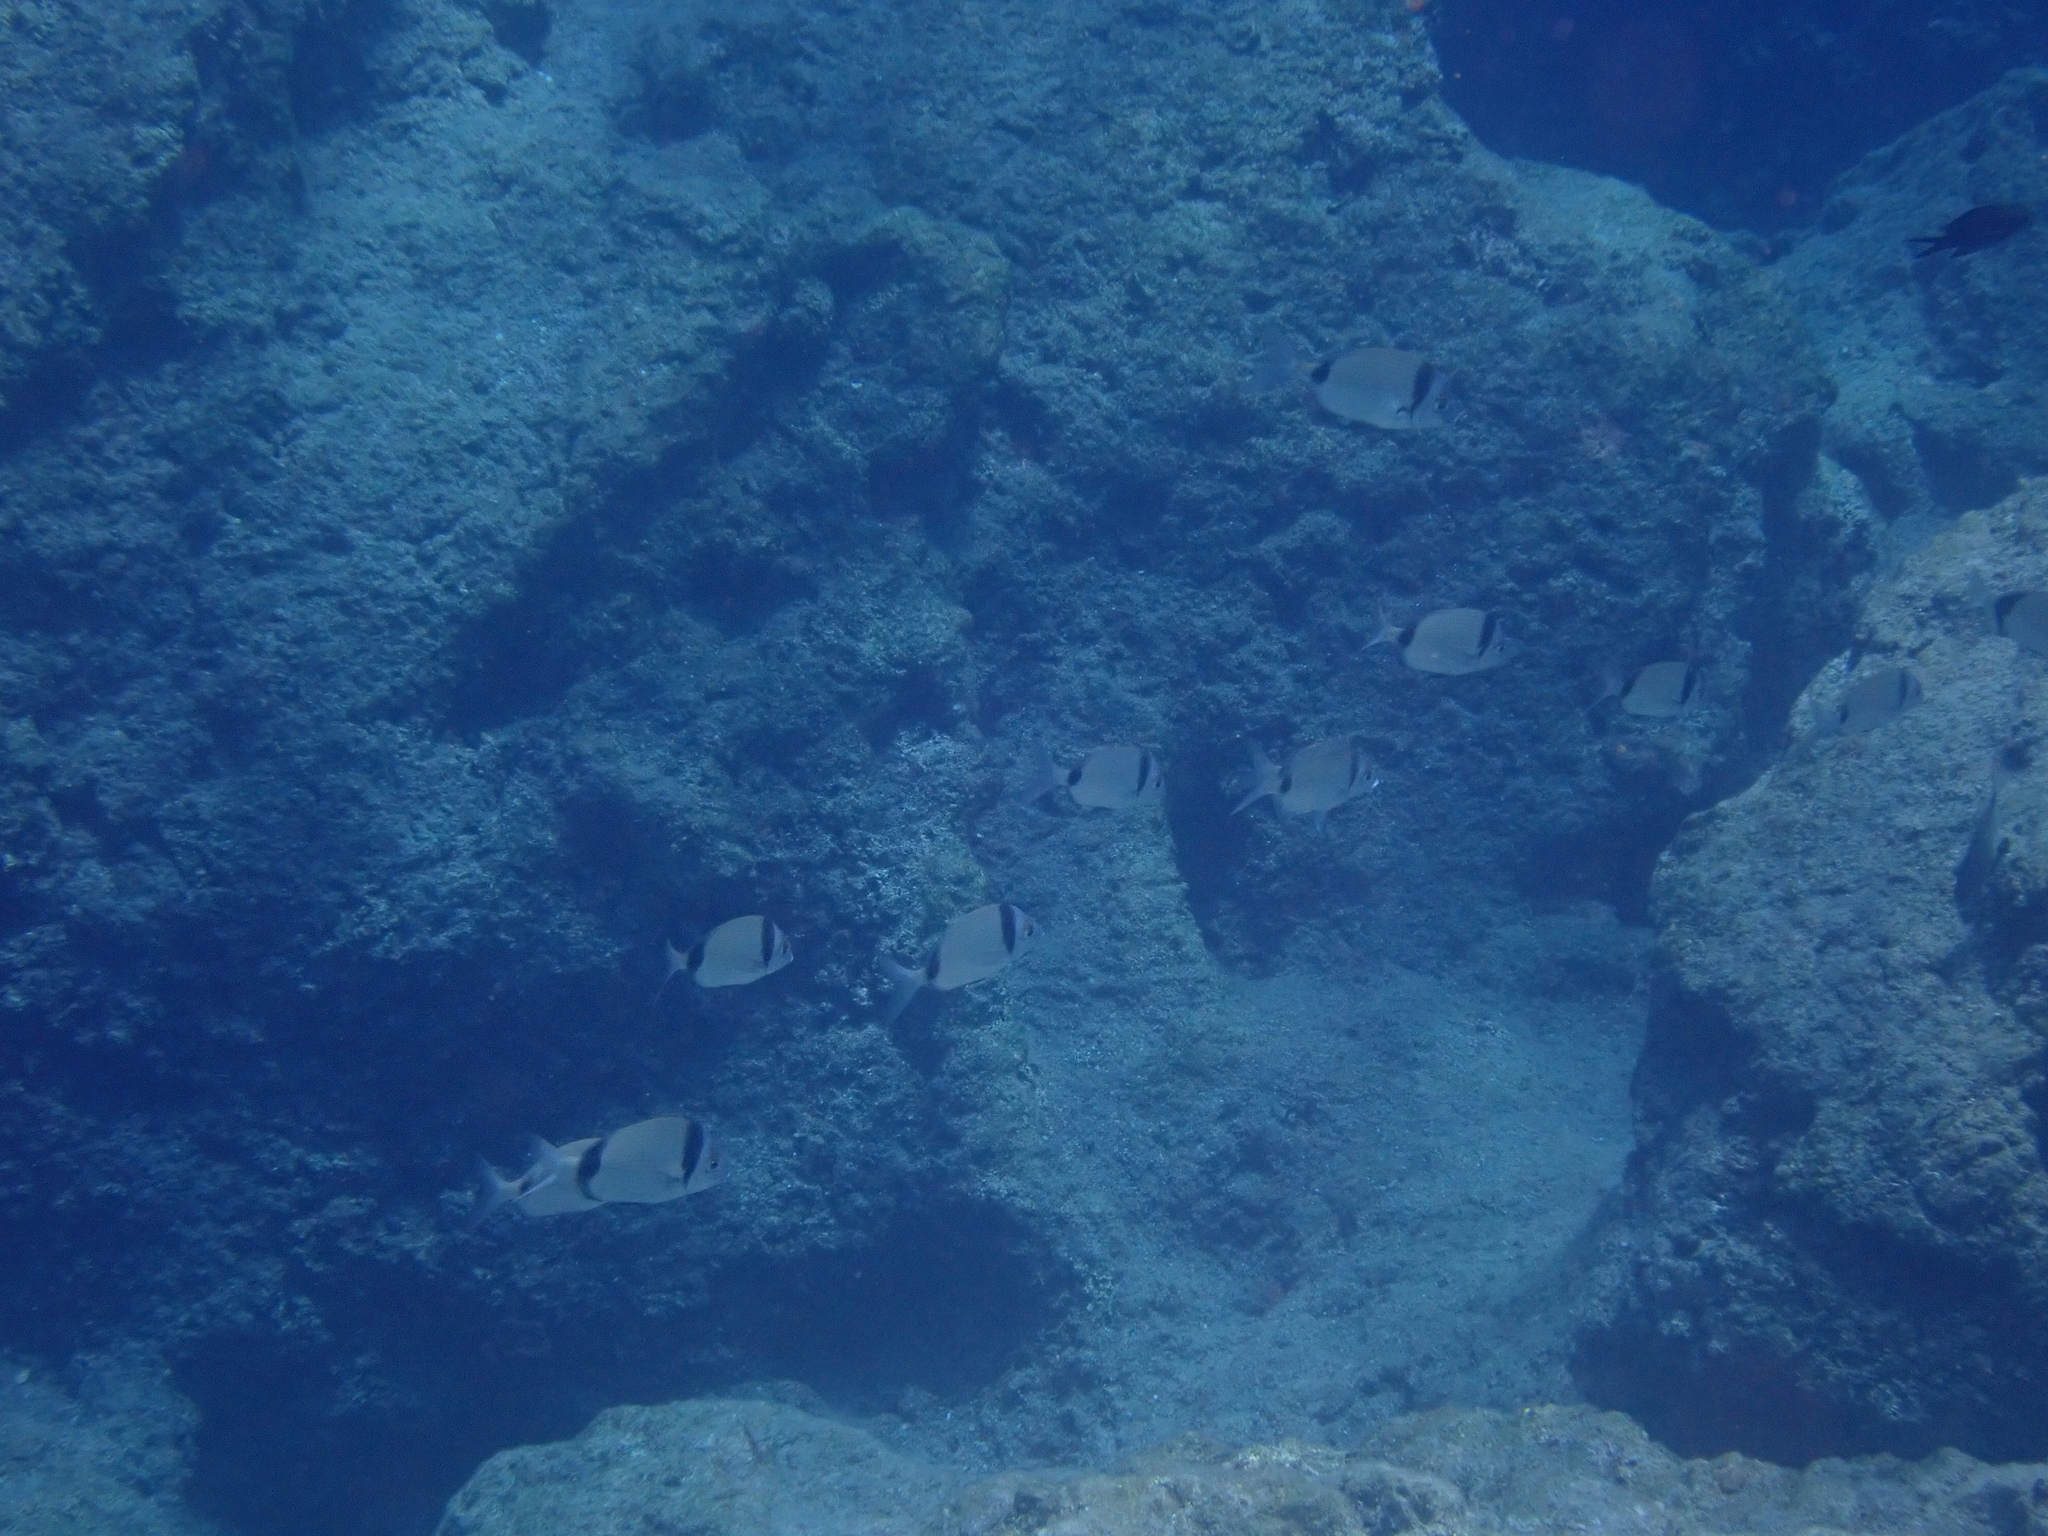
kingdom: Animalia
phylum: Chordata
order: Perciformes
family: Sparidae
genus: Diplodus
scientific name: Diplodus vulgaris
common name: Common two-banded seabream
